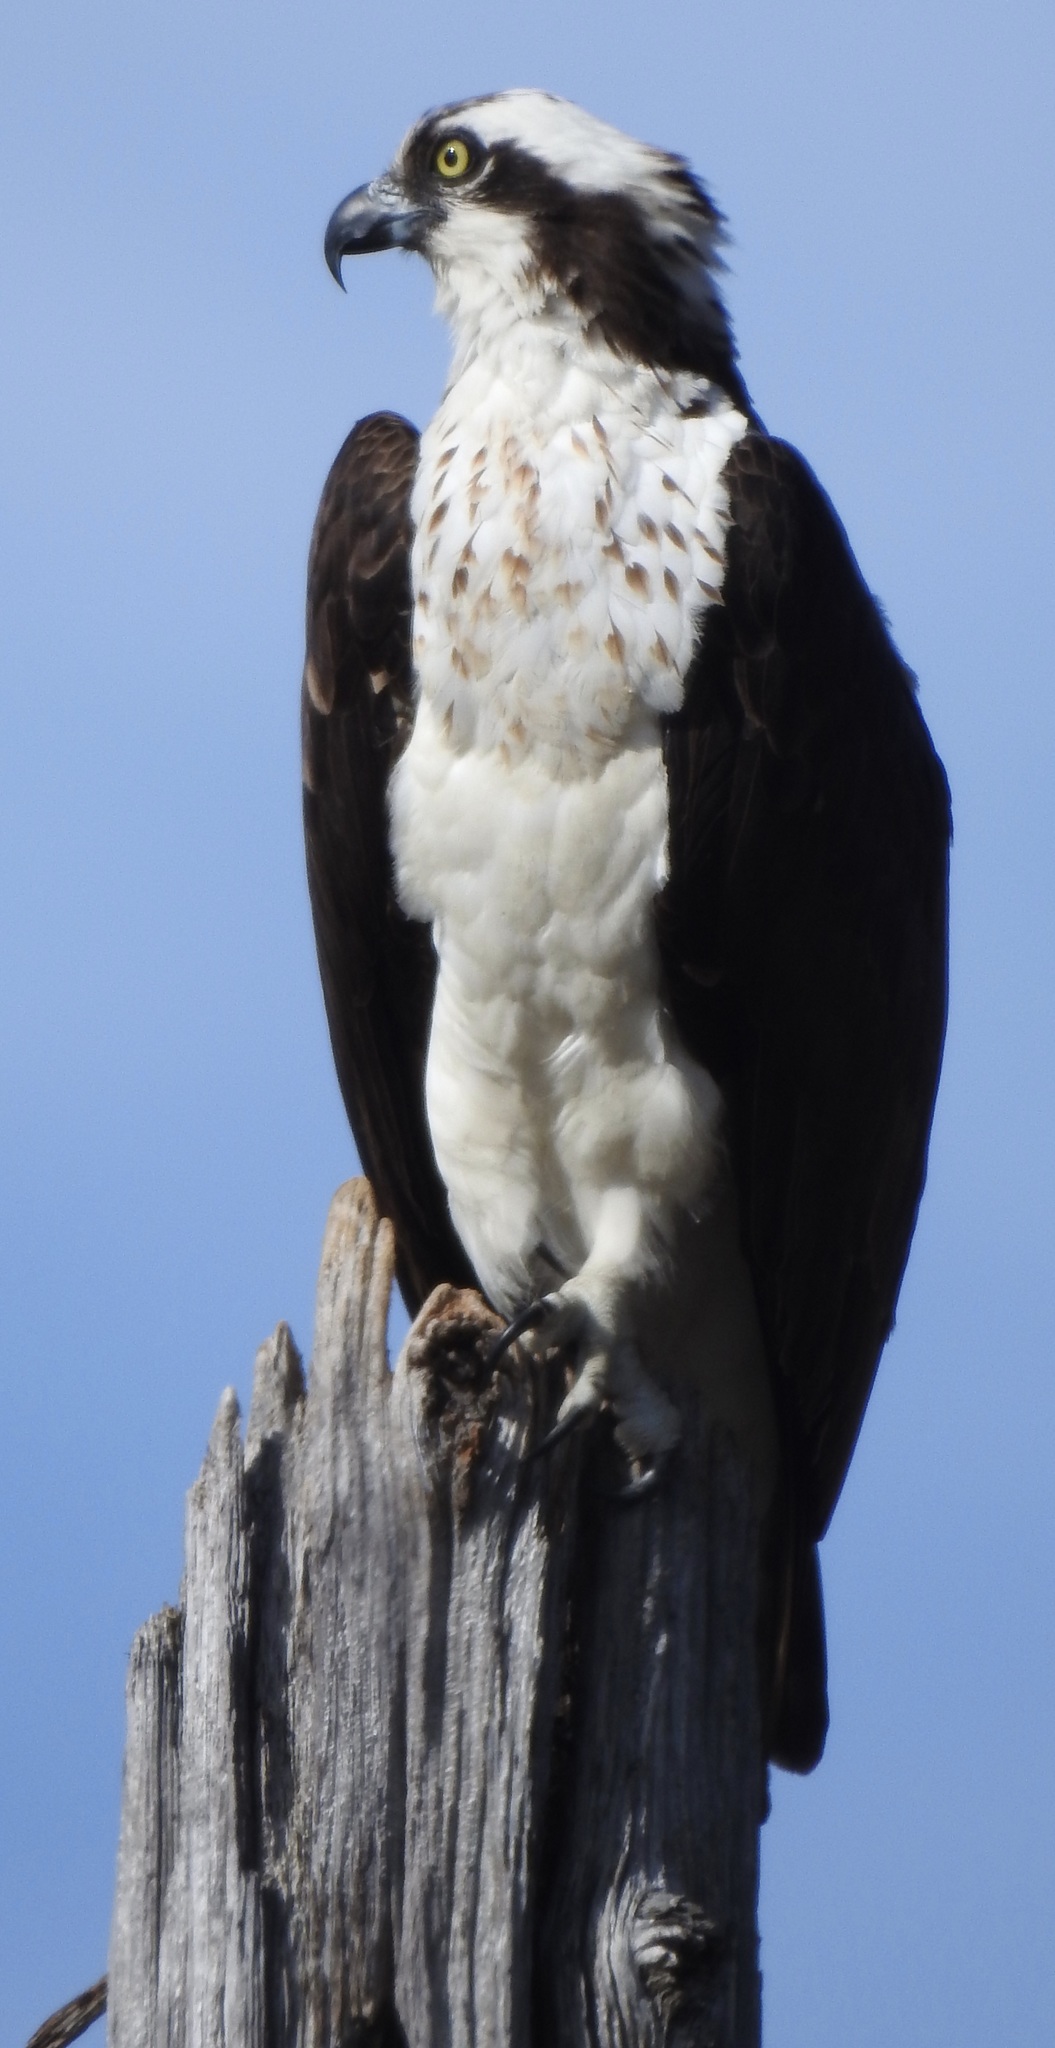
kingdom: Animalia
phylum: Chordata
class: Aves
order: Accipitriformes
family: Pandionidae
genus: Pandion
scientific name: Pandion haliaetus
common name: Osprey
